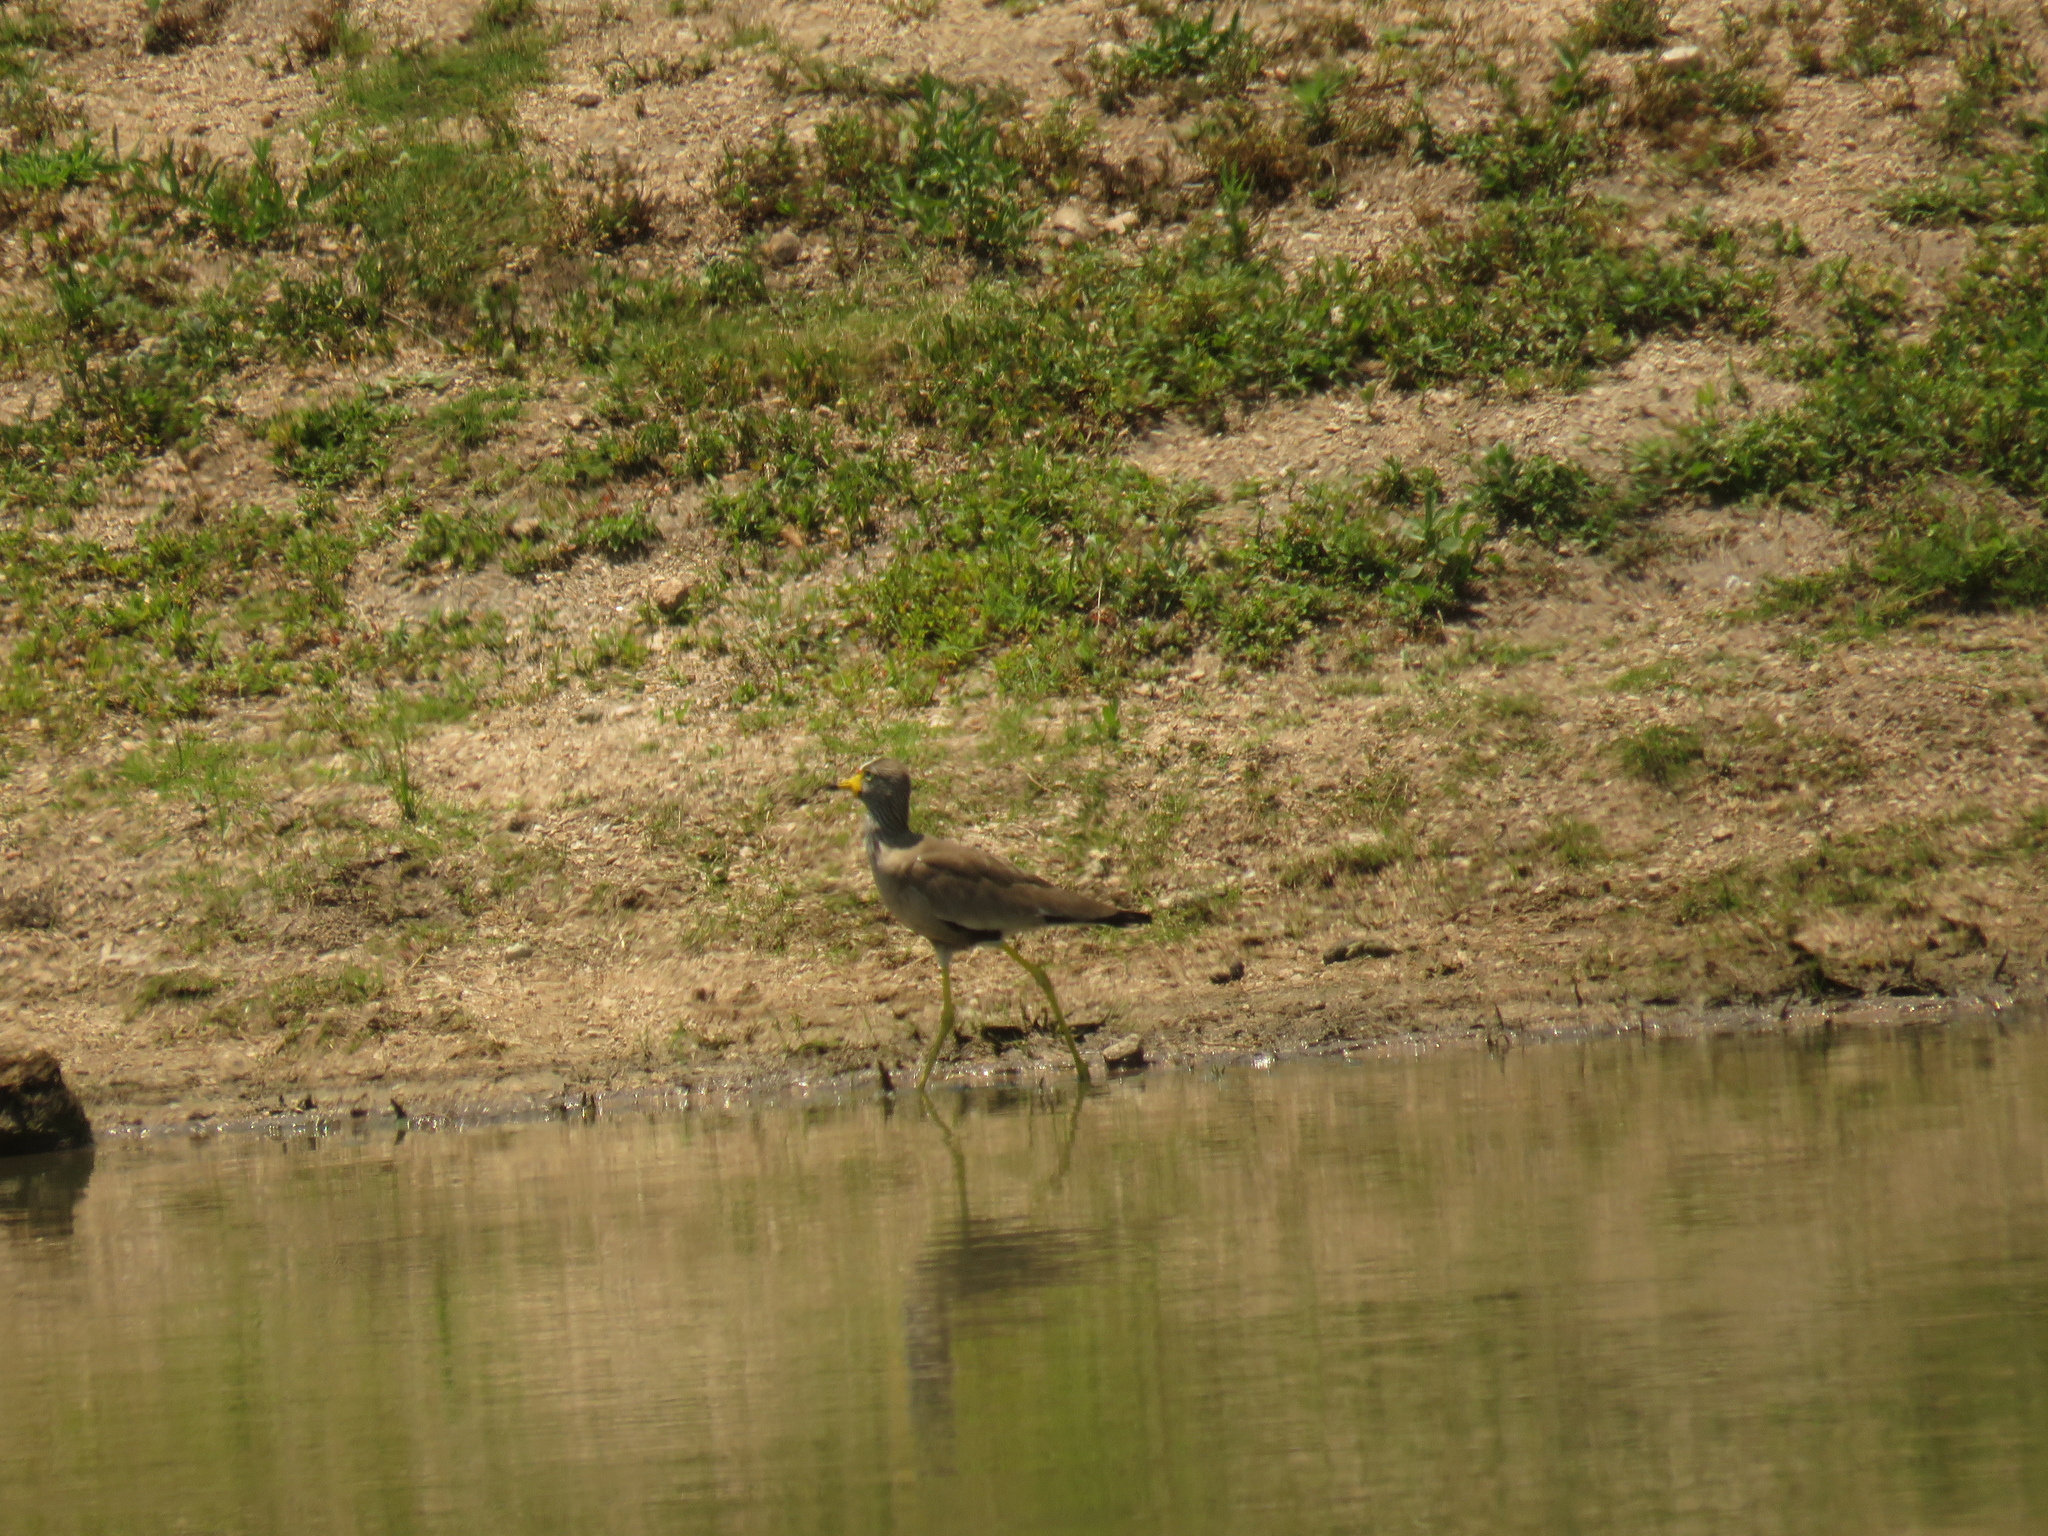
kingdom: Animalia
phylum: Chordata
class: Aves
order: Charadriiformes
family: Charadriidae
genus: Vanellus
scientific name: Vanellus senegallus
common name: African wattled lapwing
